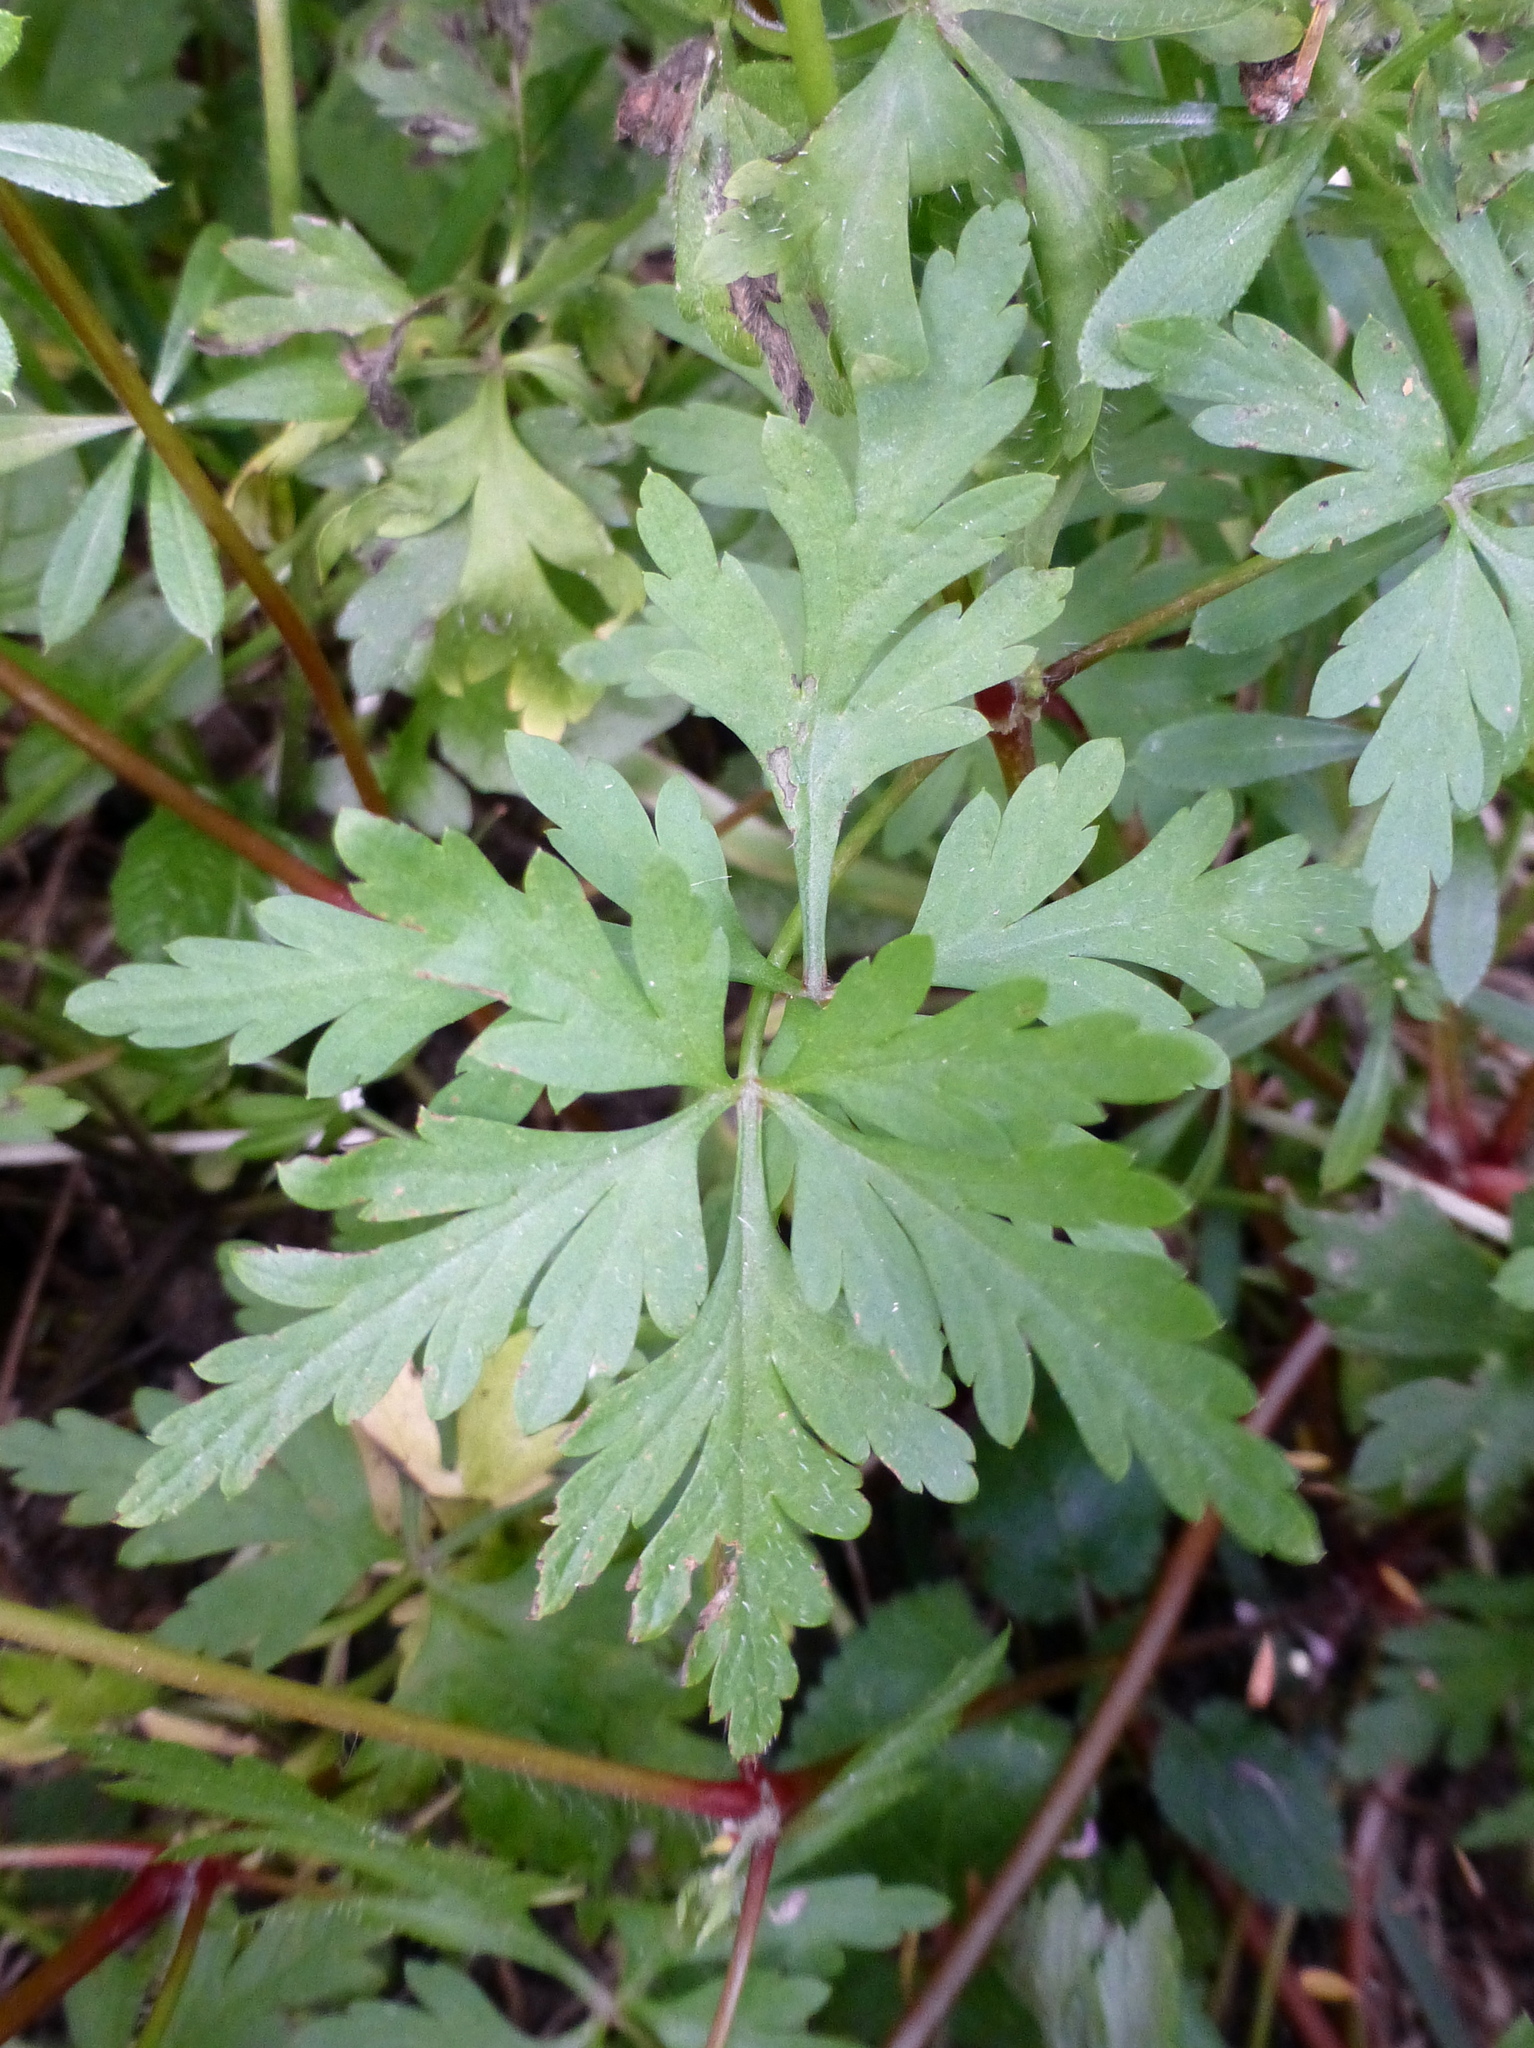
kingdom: Plantae
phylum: Tracheophyta
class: Magnoliopsida
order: Geraniales
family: Geraniaceae
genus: Geranium
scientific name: Geranium purpureum
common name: Little-robin
